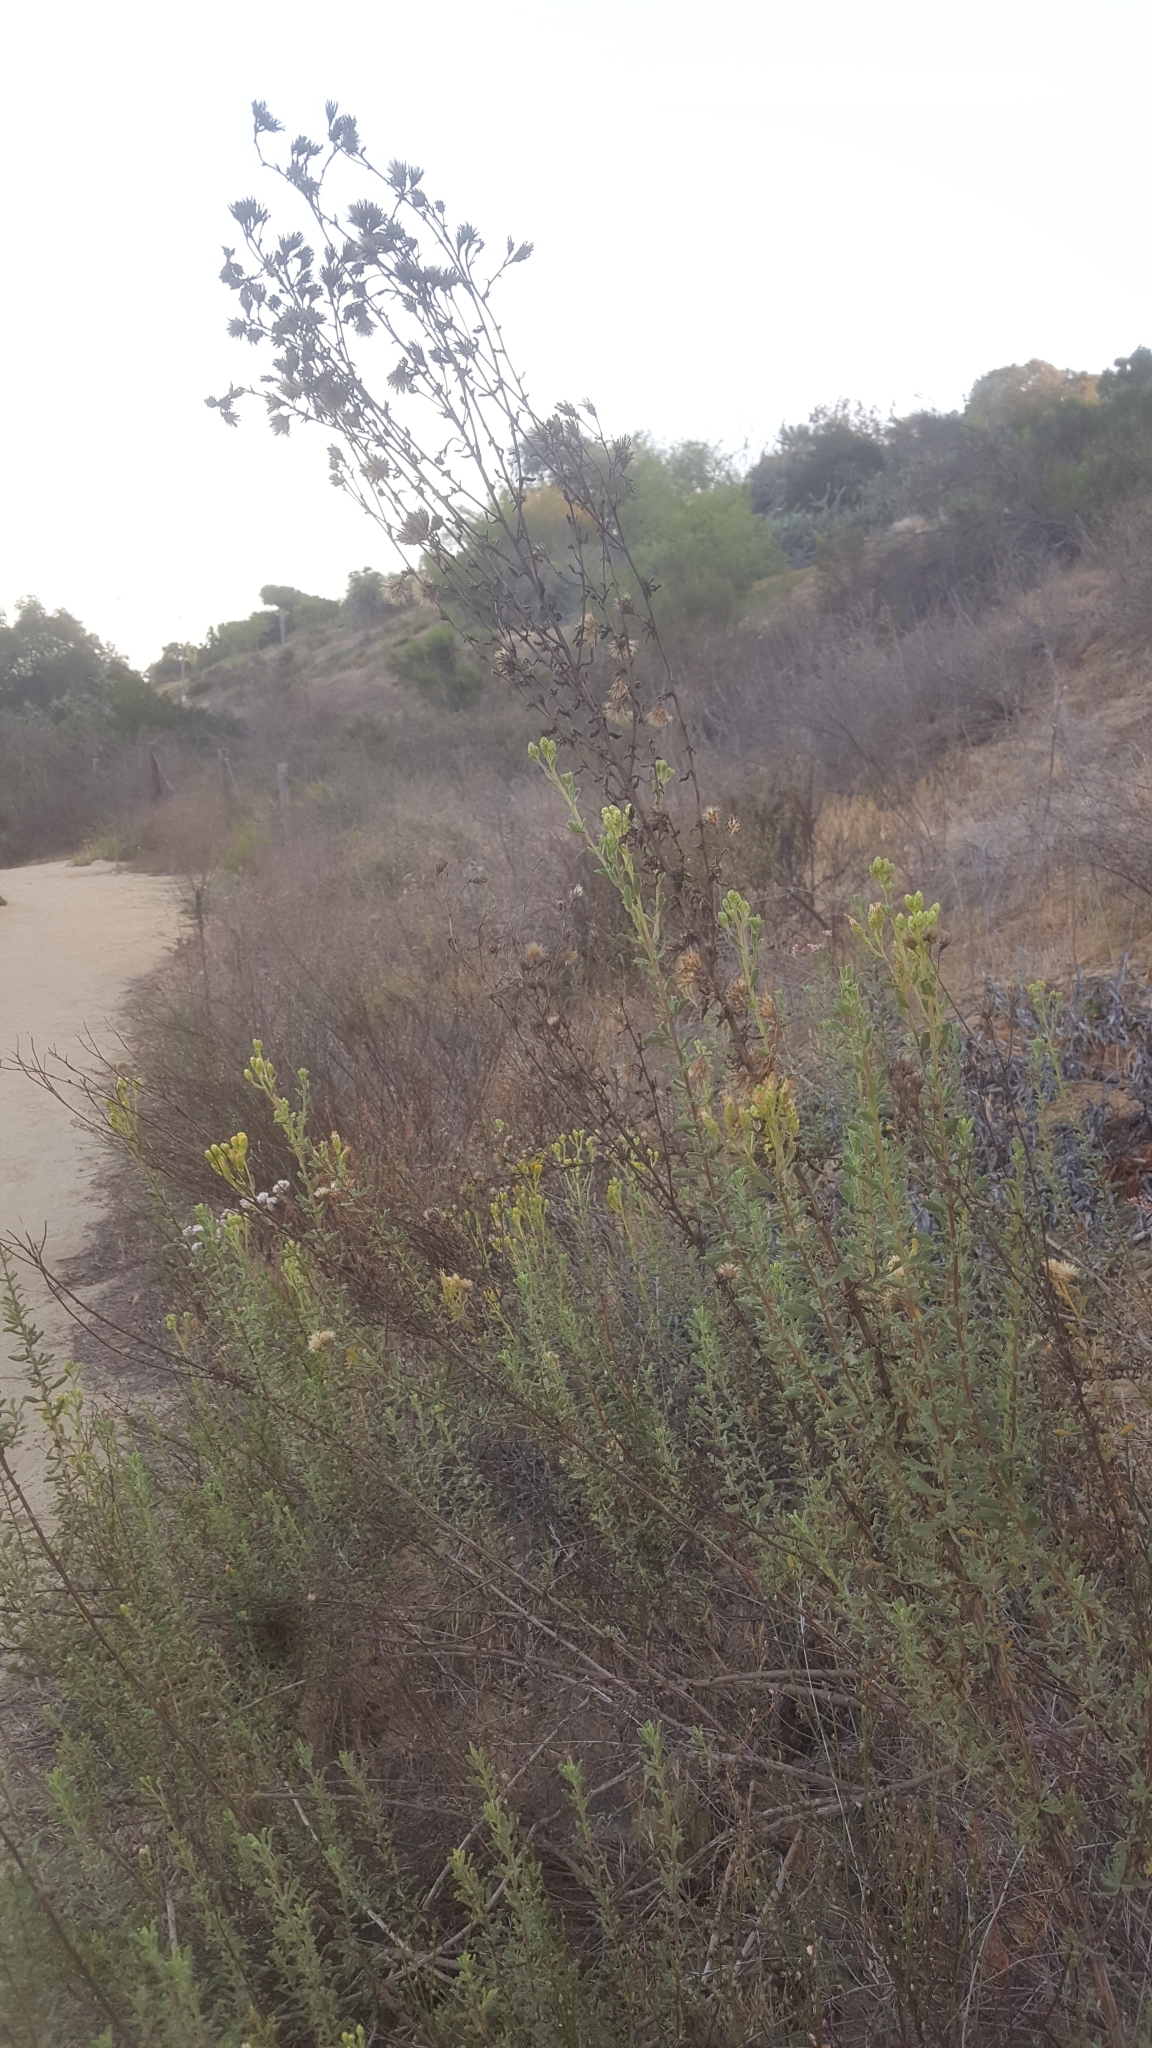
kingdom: Plantae
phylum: Tracheophyta
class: Magnoliopsida
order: Asterales
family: Asteraceae
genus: Isocoma
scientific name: Isocoma menziesii
